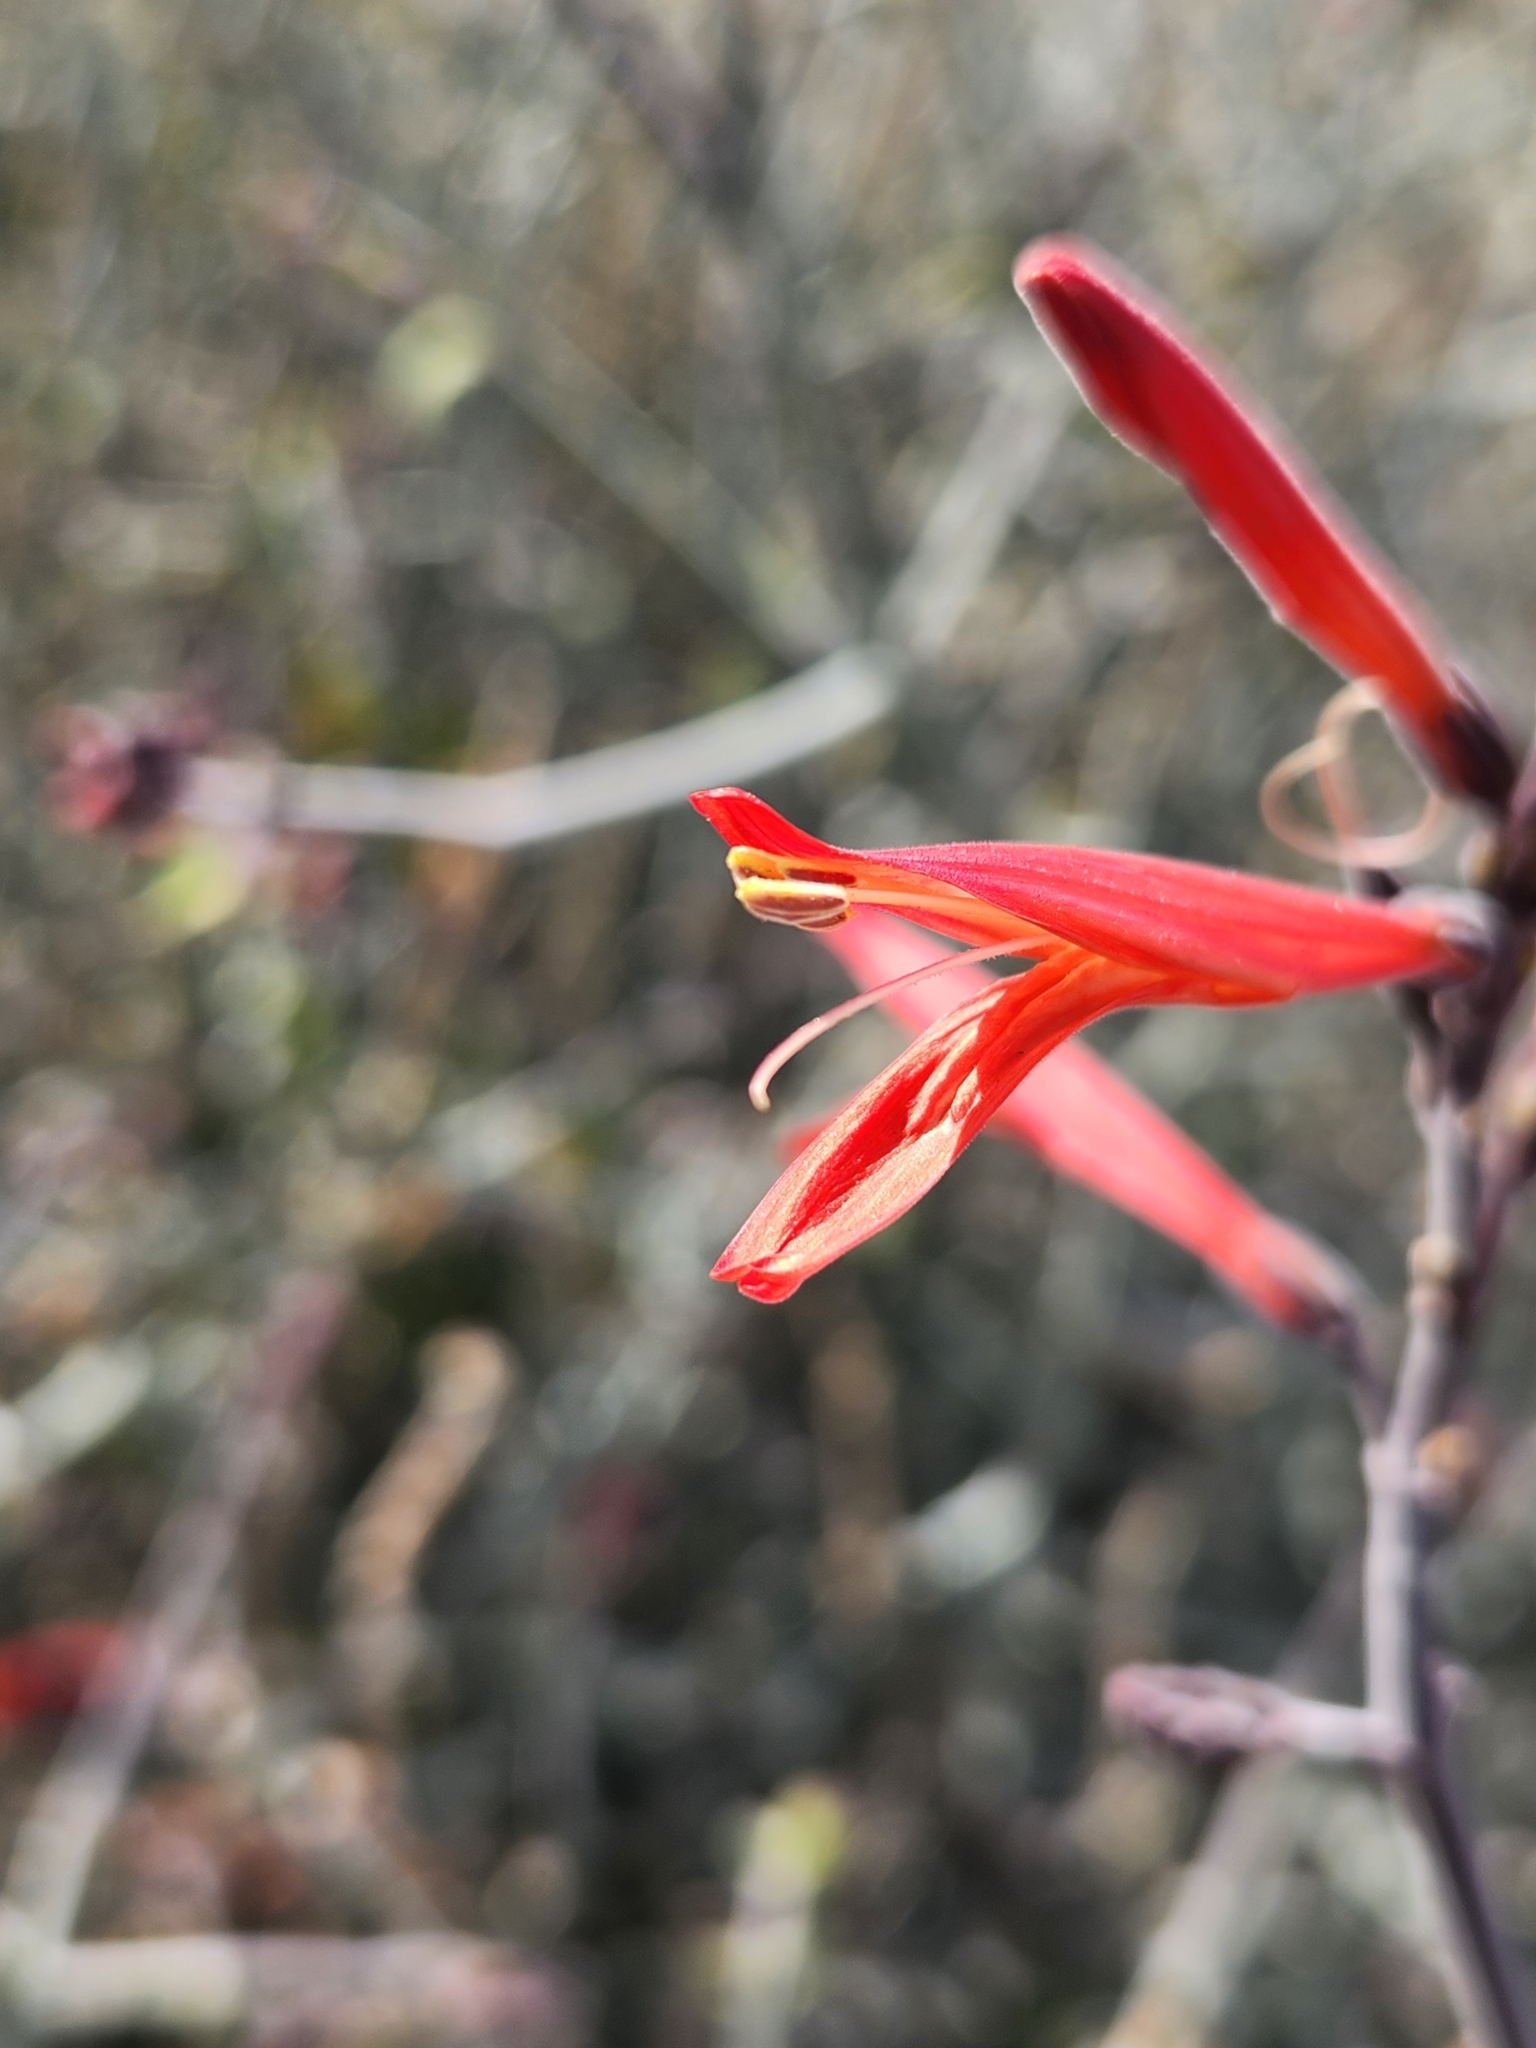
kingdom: Plantae
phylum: Tracheophyta
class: Magnoliopsida
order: Lamiales
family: Acanthaceae
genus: Justicia
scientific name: Justicia californica
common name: Chuparosa-honeysuckle
